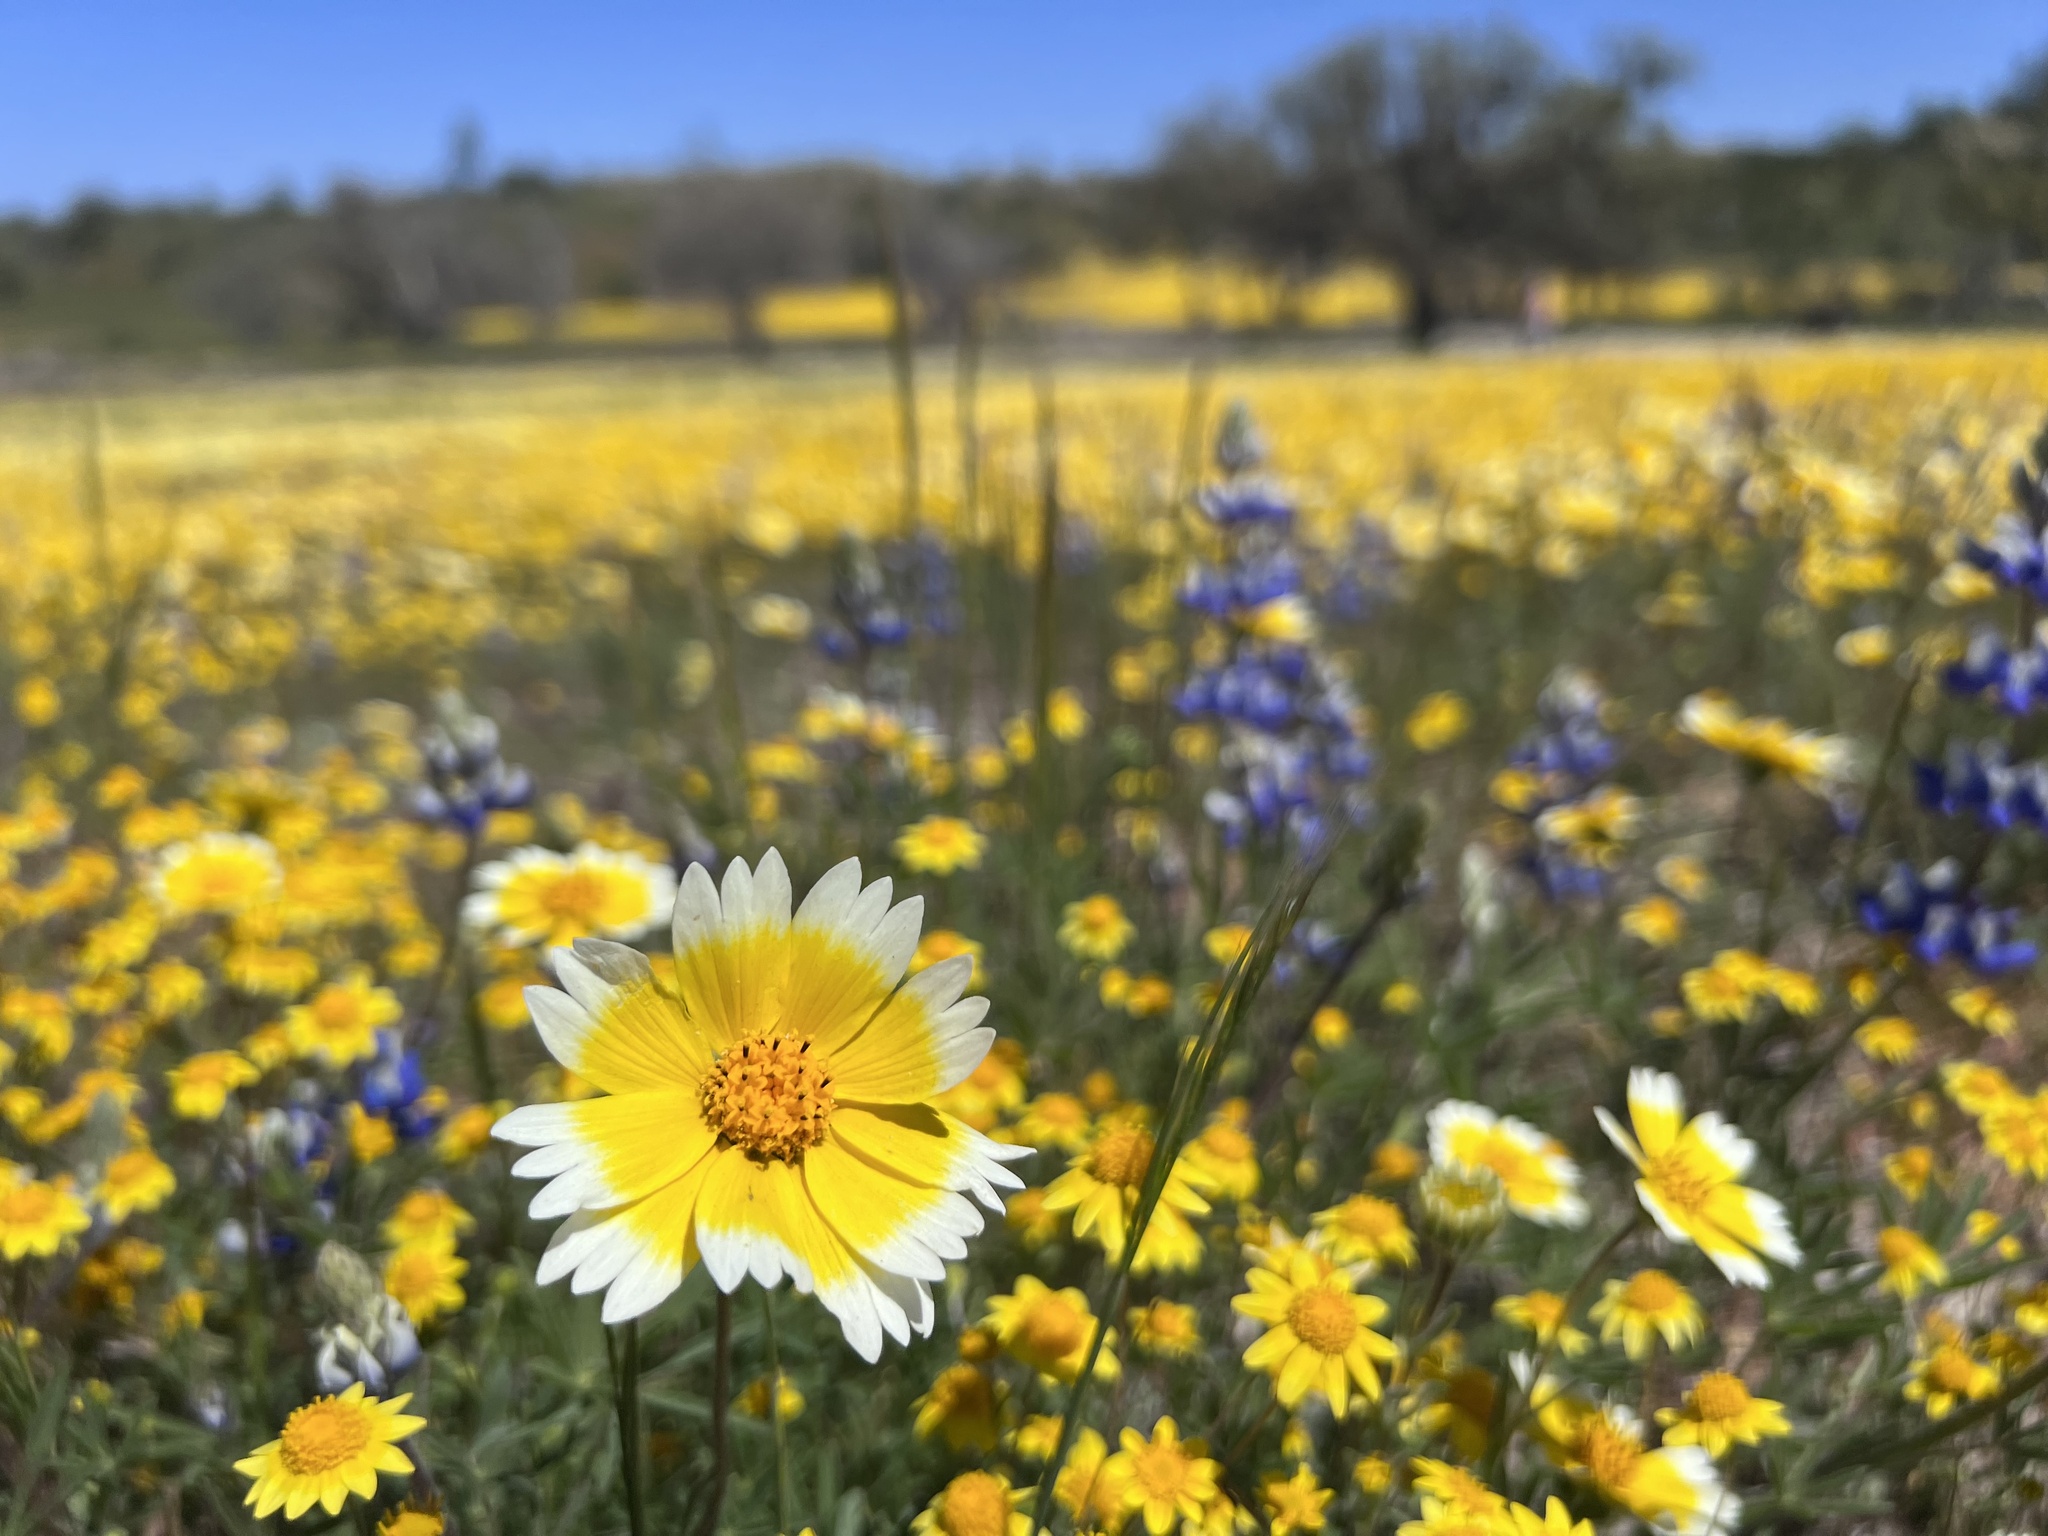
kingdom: Plantae
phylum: Tracheophyta
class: Magnoliopsida
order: Asterales
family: Asteraceae
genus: Layia
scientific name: Layia platyglossa
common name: Tidy-tips
